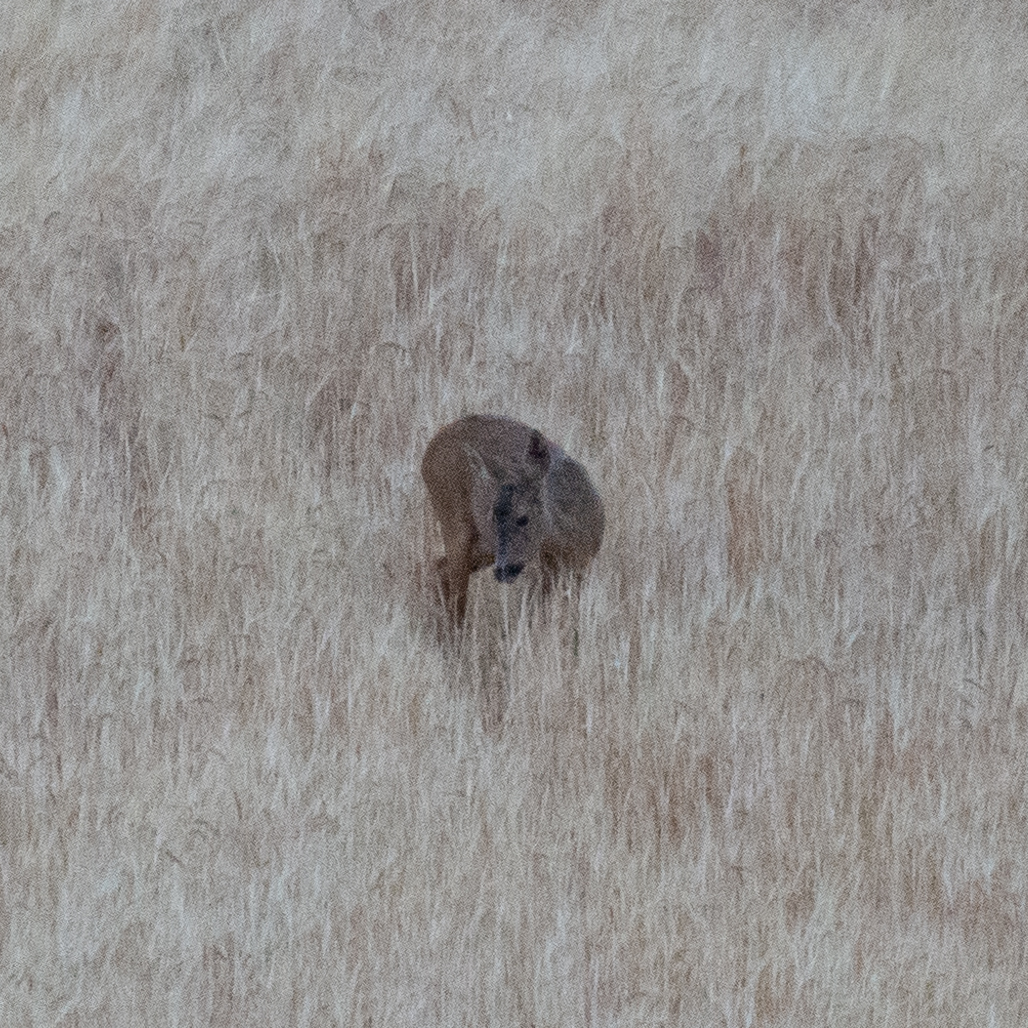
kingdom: Animalia
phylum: Chordata
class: Mammalia
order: Artiodactyla
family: Cervidae
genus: Capreolus
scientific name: Capreolus capreolus
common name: Western roe deer
